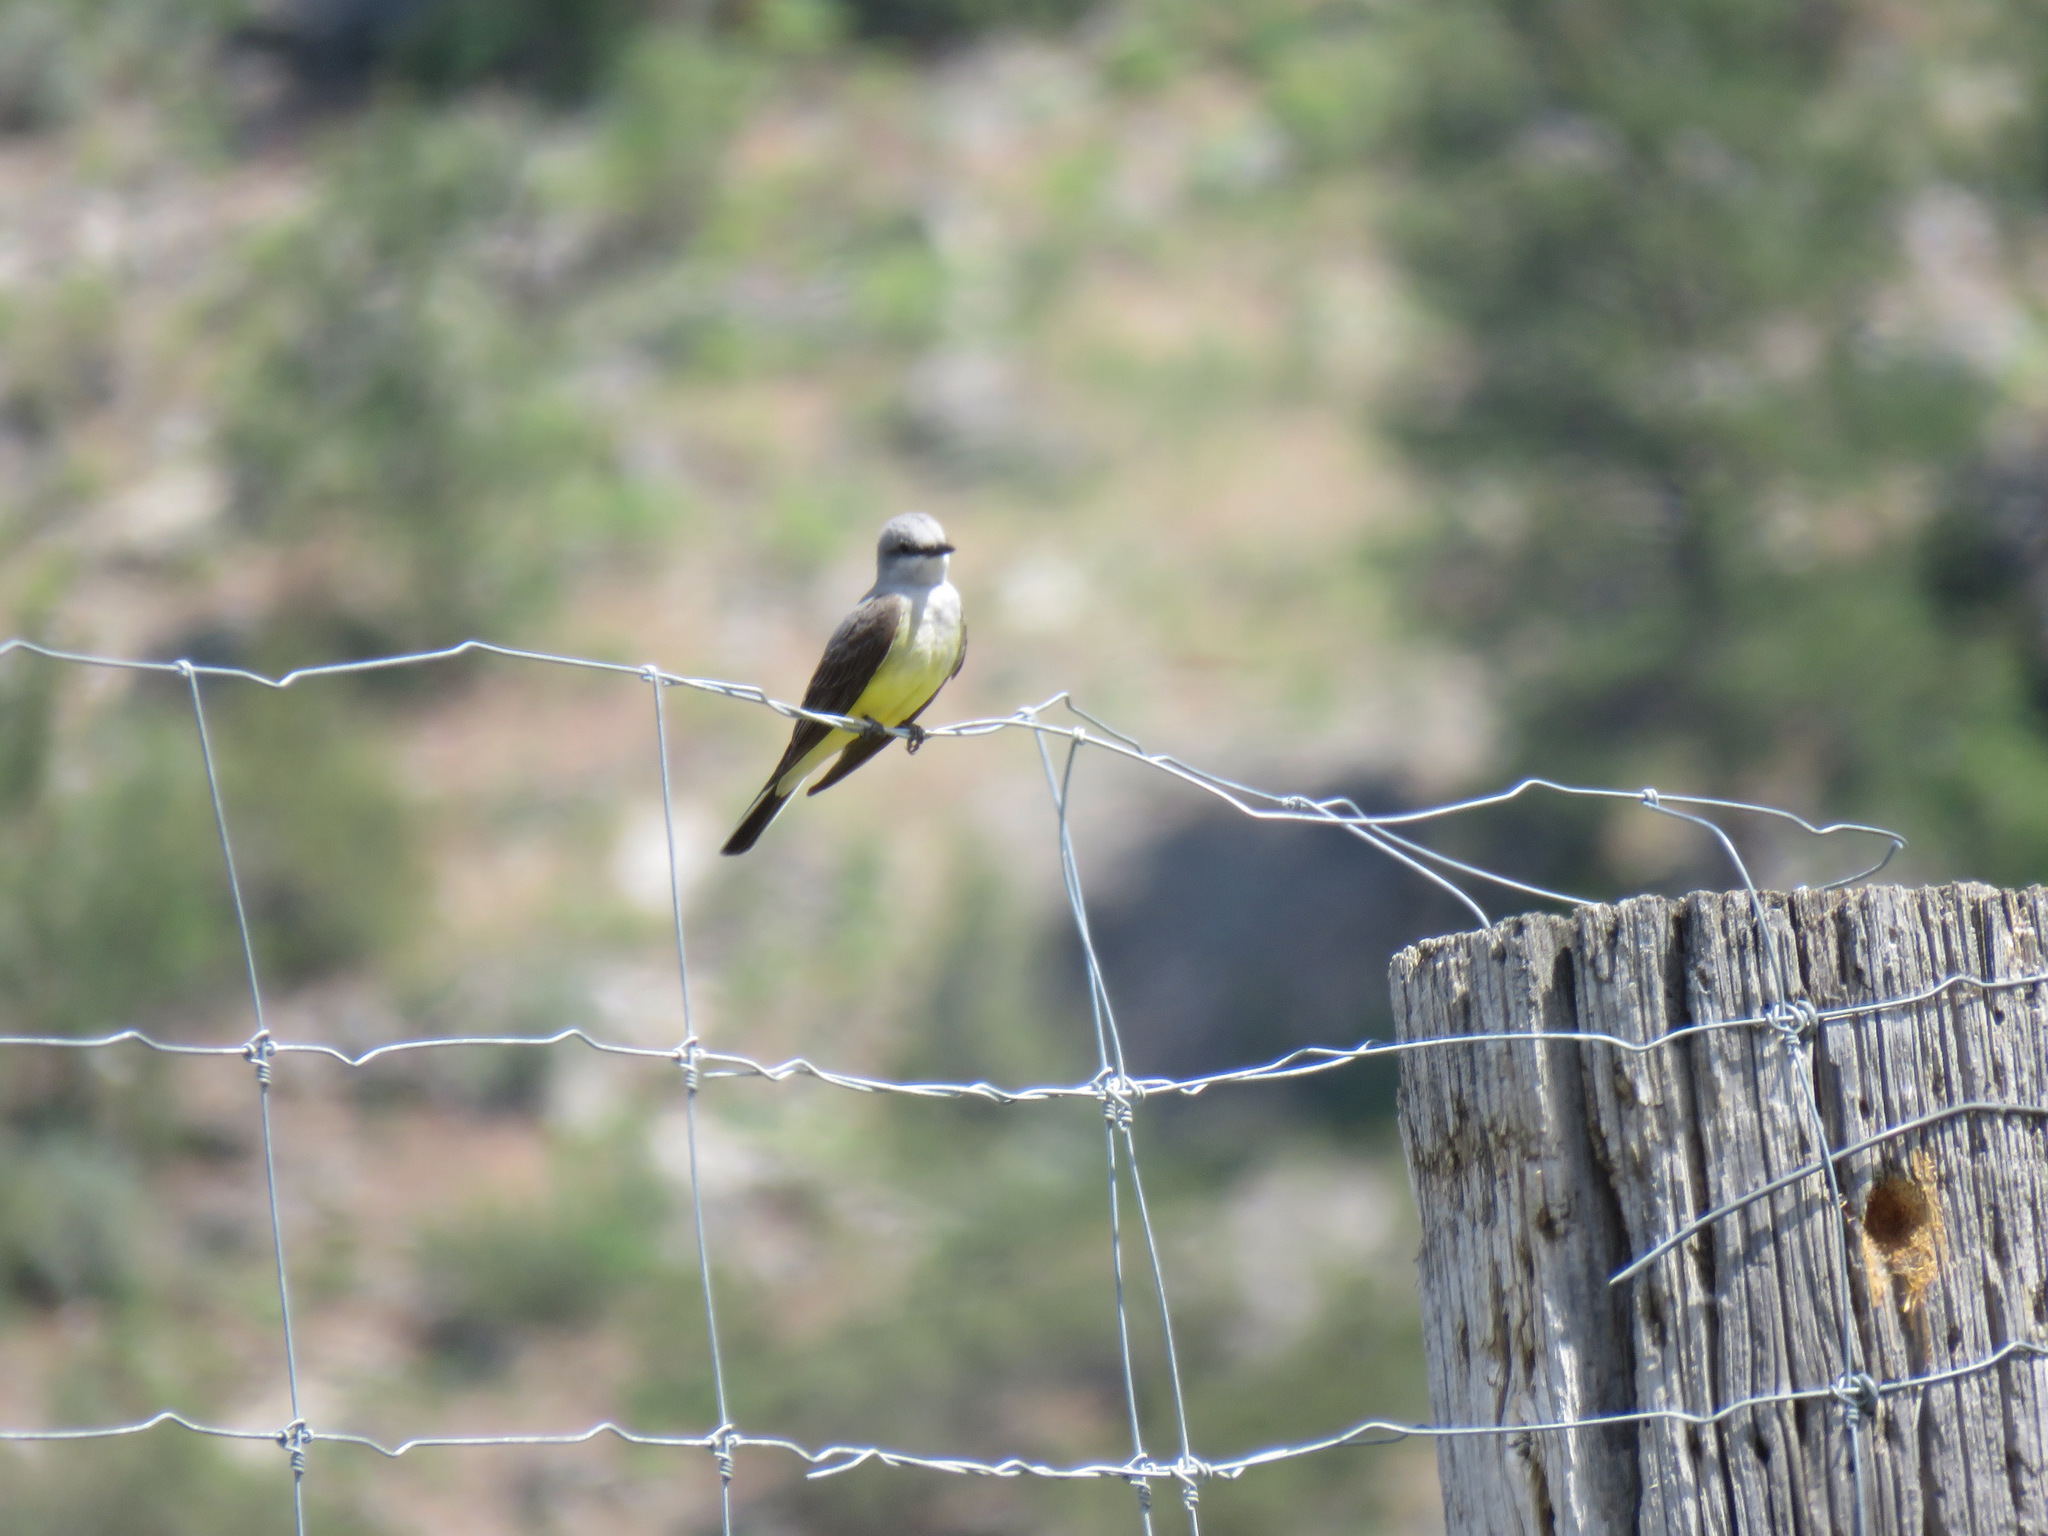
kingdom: Animalia
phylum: Chordata
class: Aves
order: Passeriformes
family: Tyrannidae
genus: Tyrannus
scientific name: Tyrannus verticalis
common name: Western kingbird
